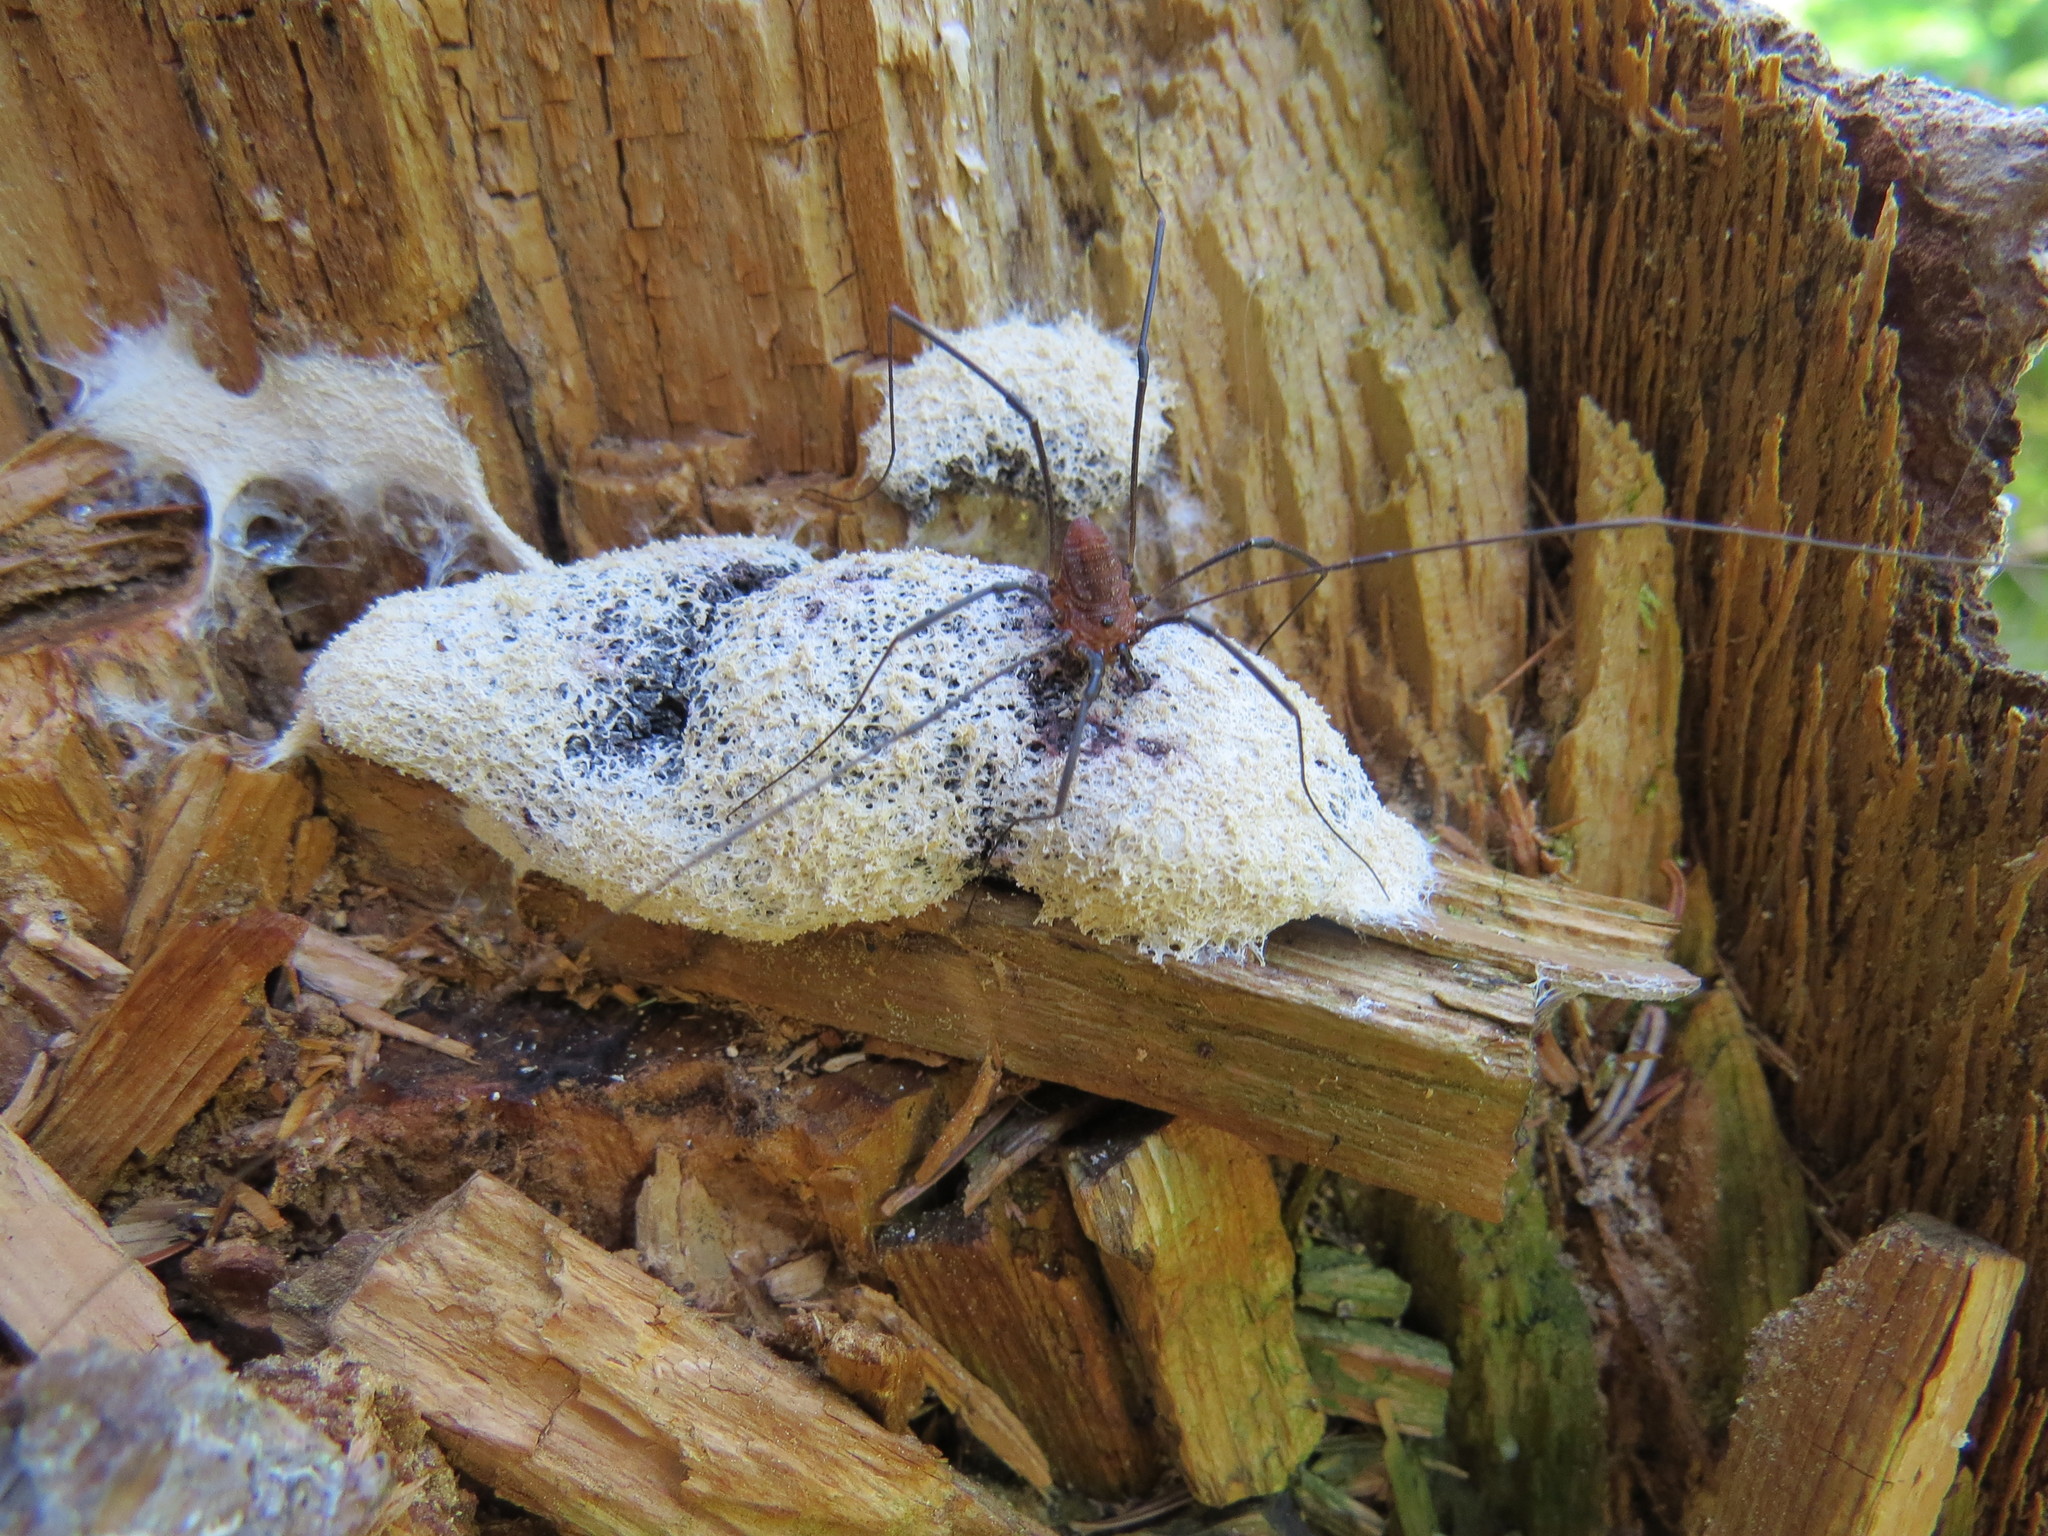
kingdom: Animalia
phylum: Arthropoda
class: Arachnida
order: Opiliones
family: Sclerosomatidae
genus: Leiobunum
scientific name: Leiobunum calcar
